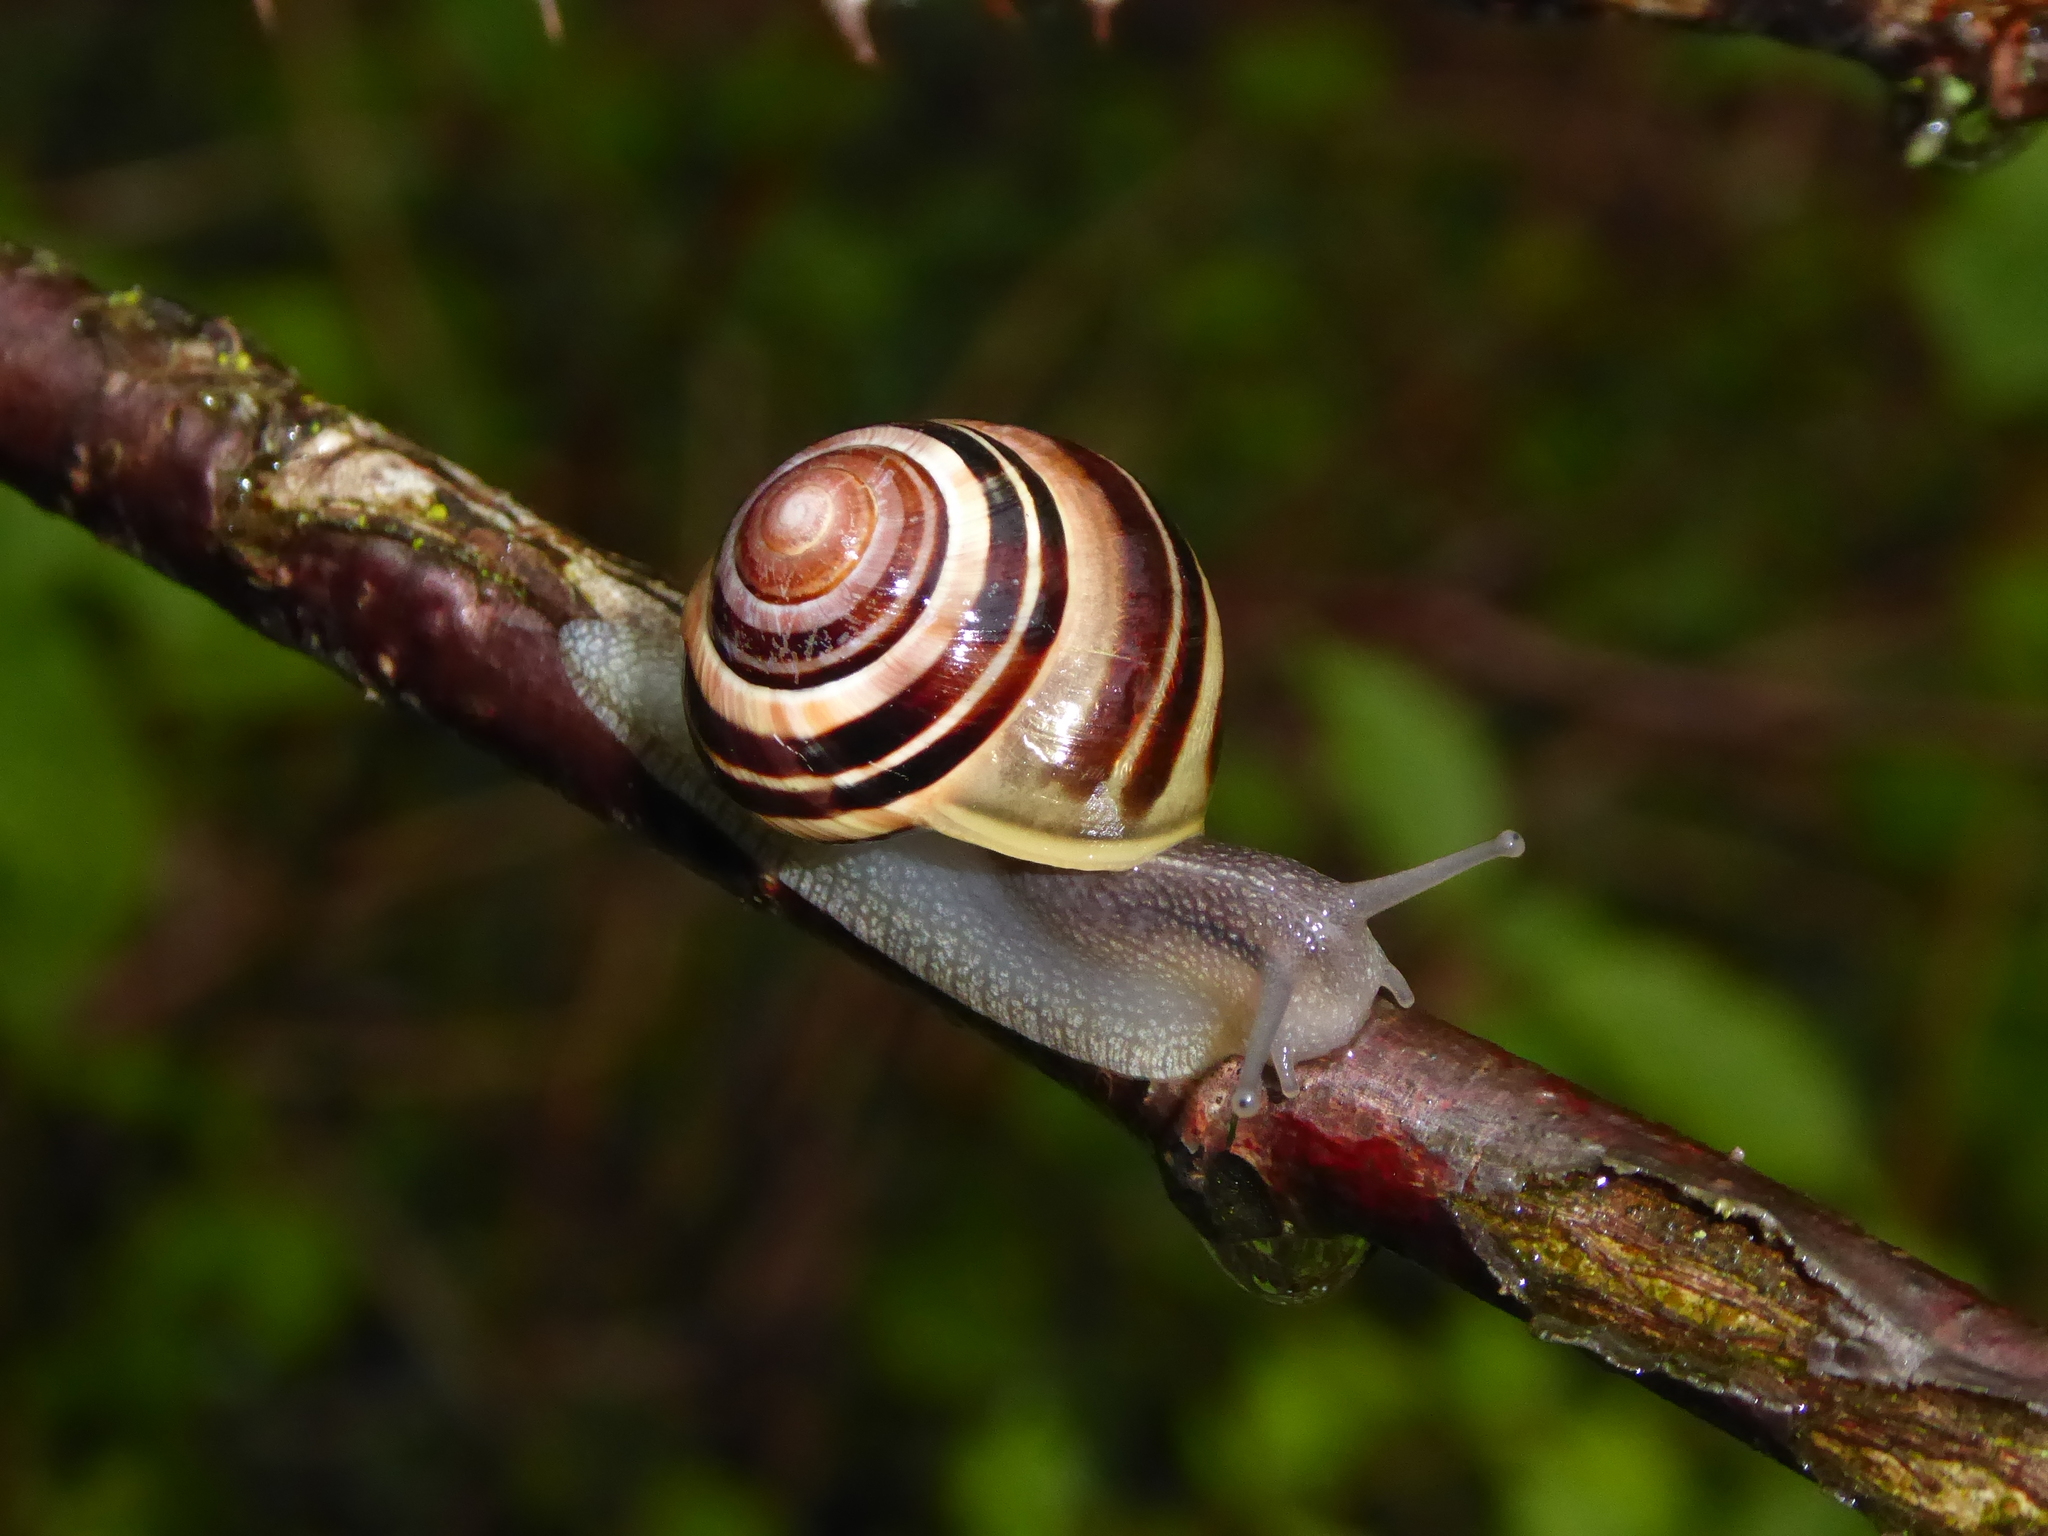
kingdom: Animalia
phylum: Mollusca
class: Gastropoda
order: Stylommatophora
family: Helicidae
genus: Cepaea
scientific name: Cepaea
